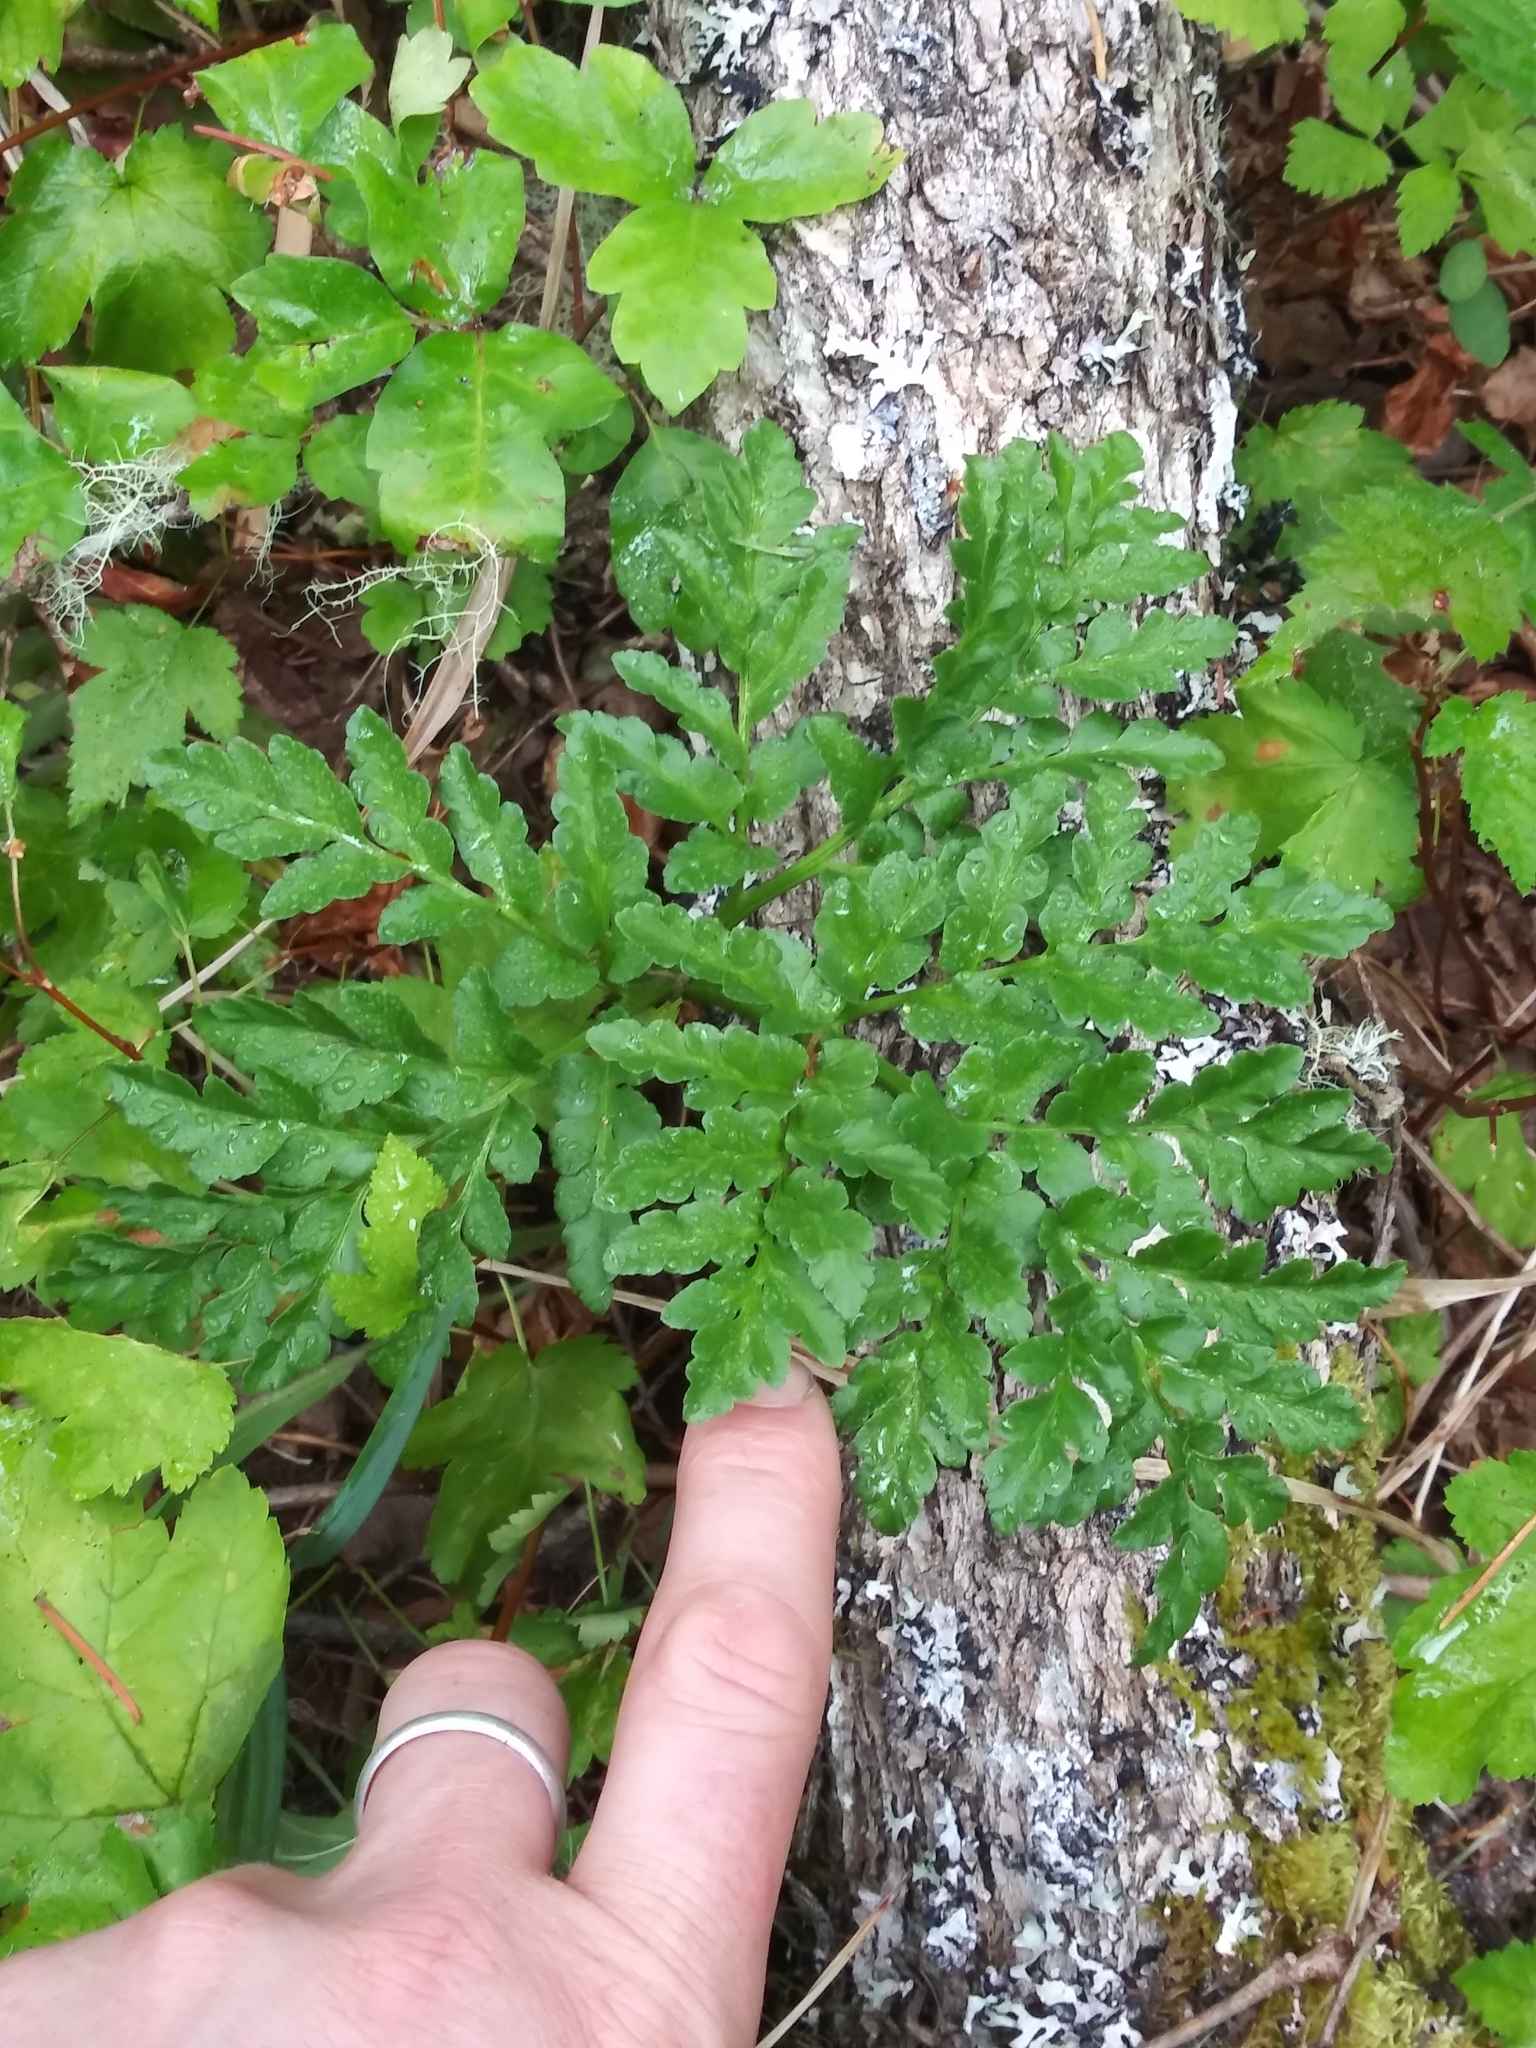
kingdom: Plantae
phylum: Tracheophyta
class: Polypodiopsida
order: Ophioglossales
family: Ophioglossaceae
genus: Sceptridium
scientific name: Sceptridium multifidum
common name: Leathery grape fern
